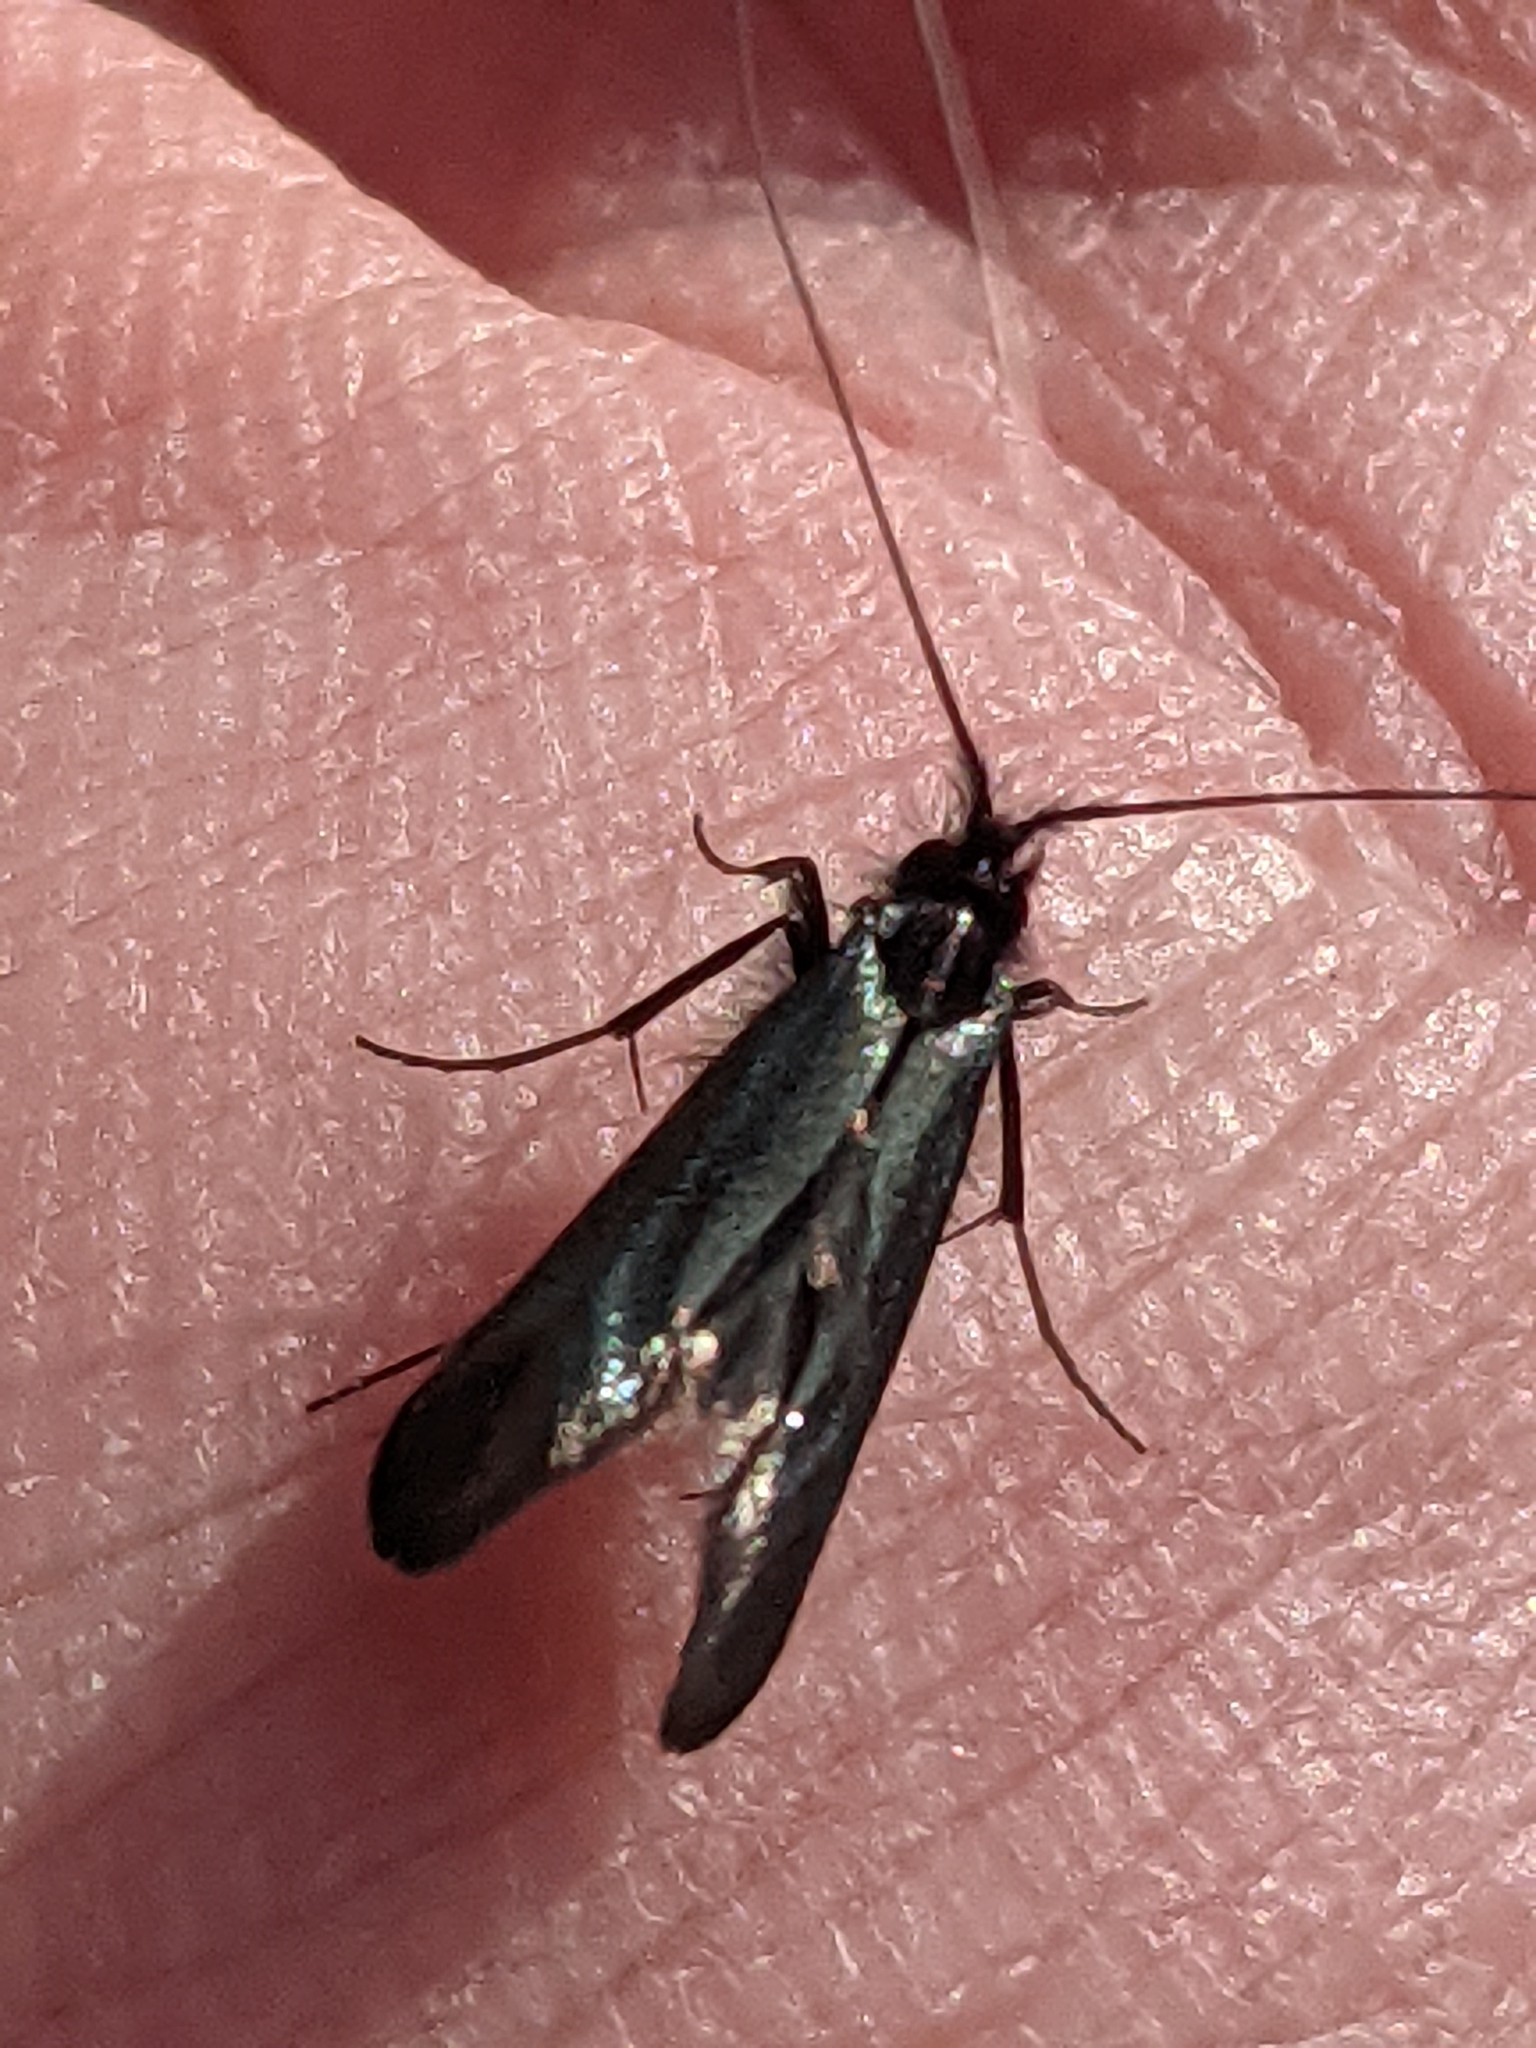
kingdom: Animalia
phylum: Arthropoda
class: Insecta
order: Lepidoptera
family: Adelidae
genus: Adela
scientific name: Adela viridella
